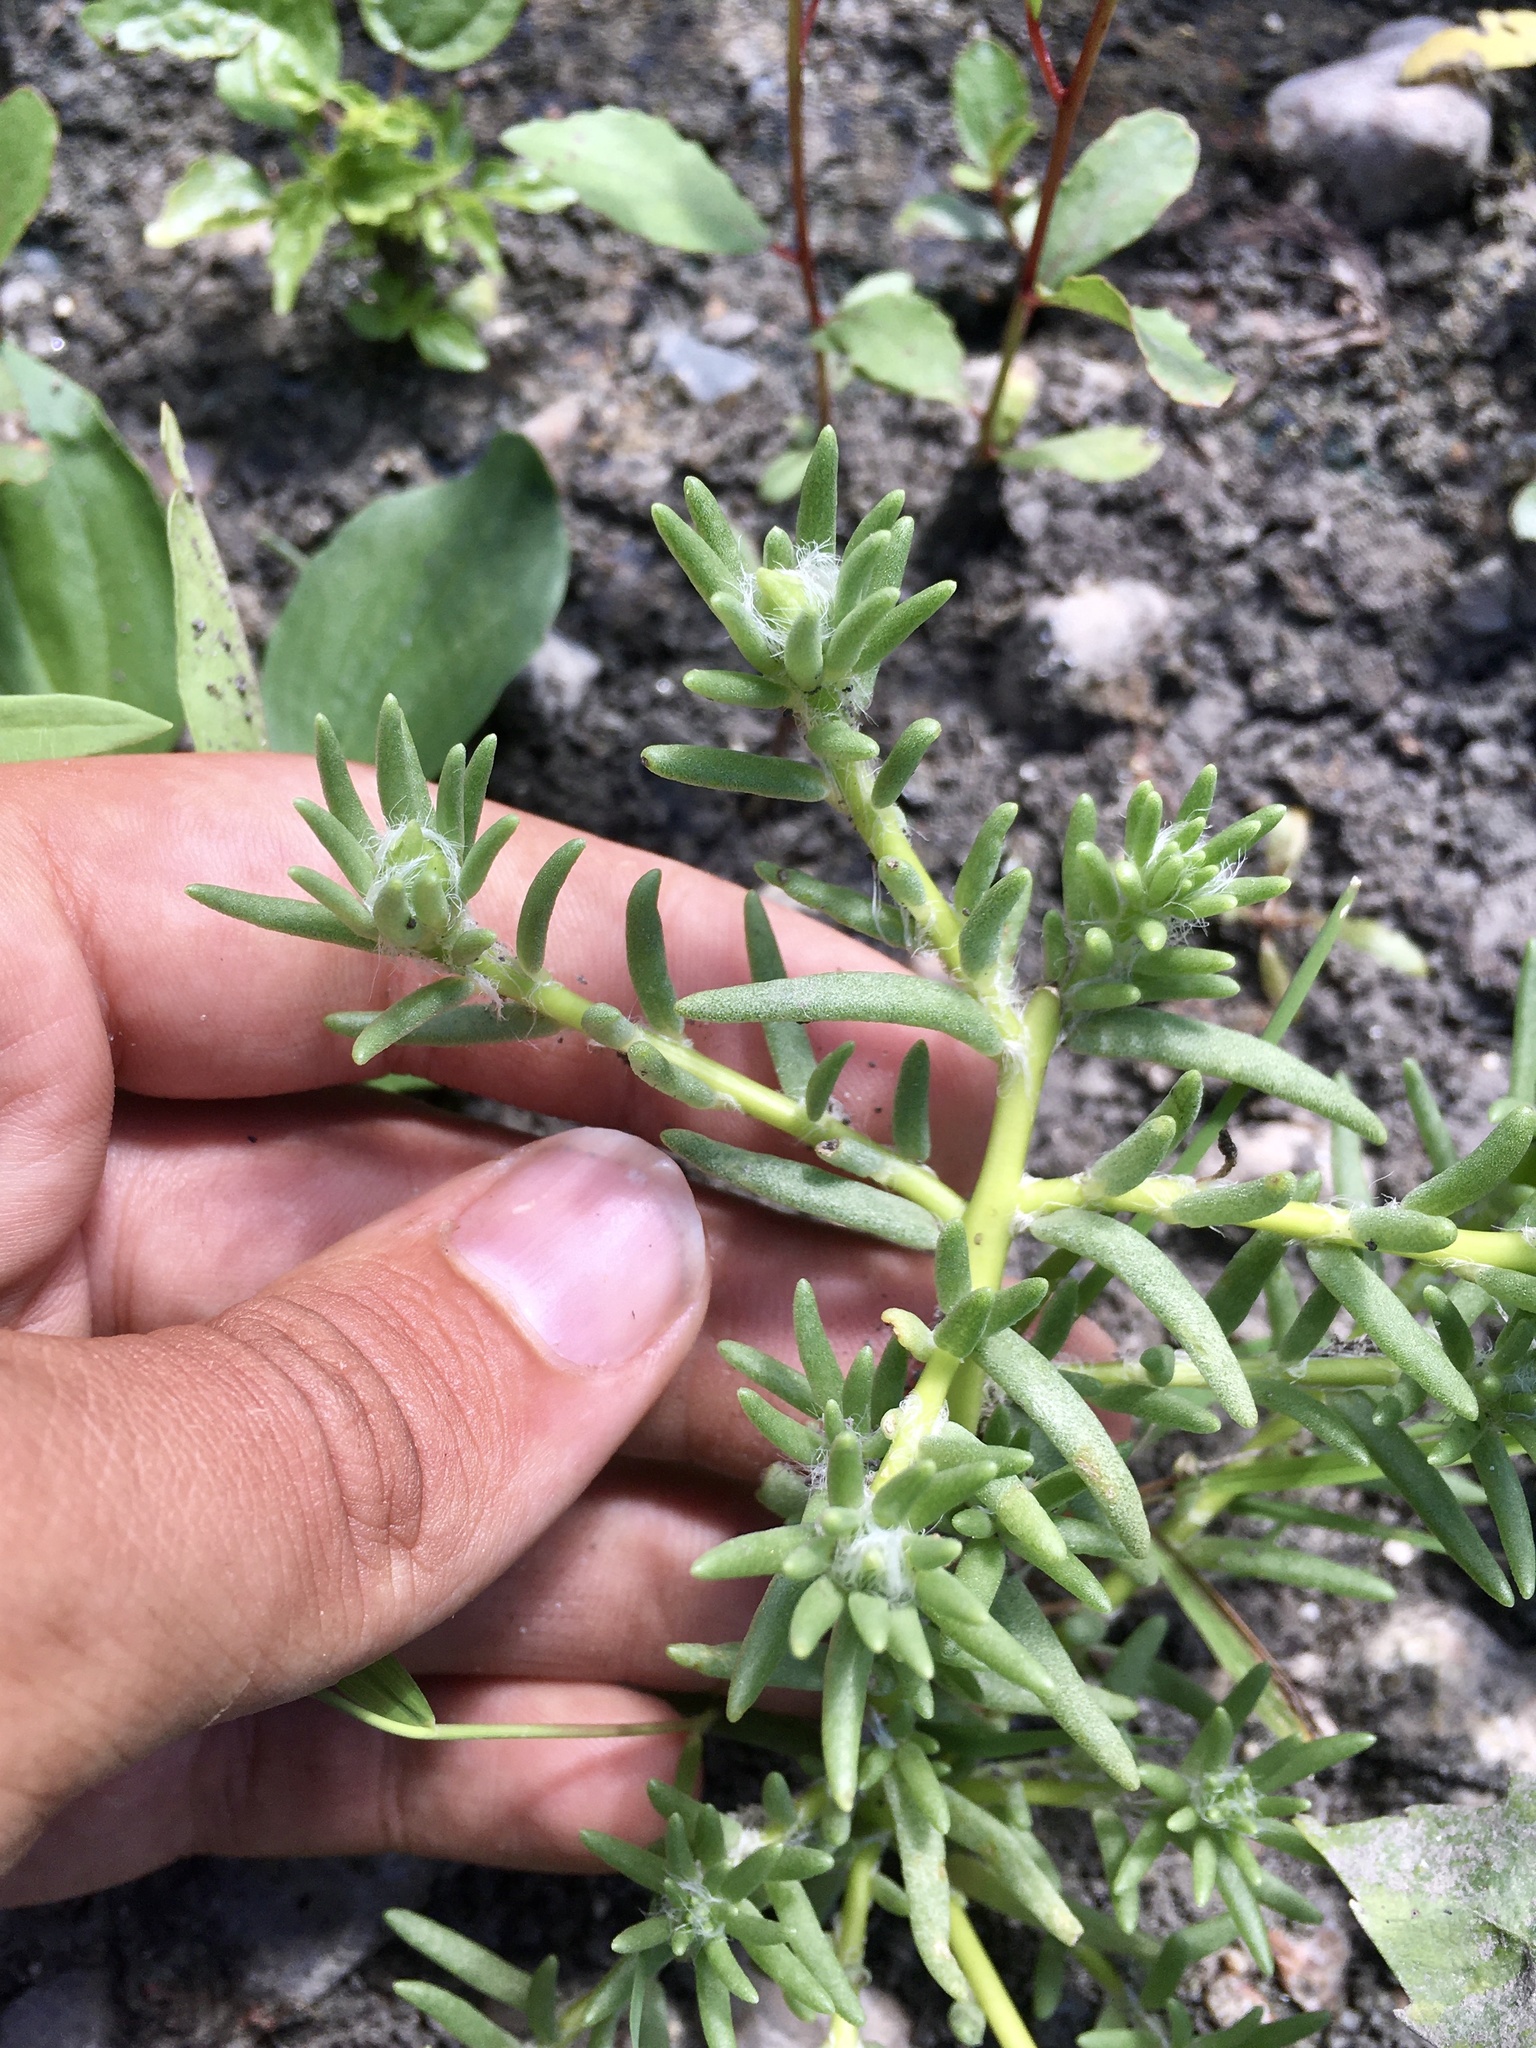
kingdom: Plantae
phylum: Tracheophyta
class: Magnoliopsida
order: Caryophyllales
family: Portulacaceae
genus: Portulaca
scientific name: Portulaca grandiflora
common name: Moss-rose
